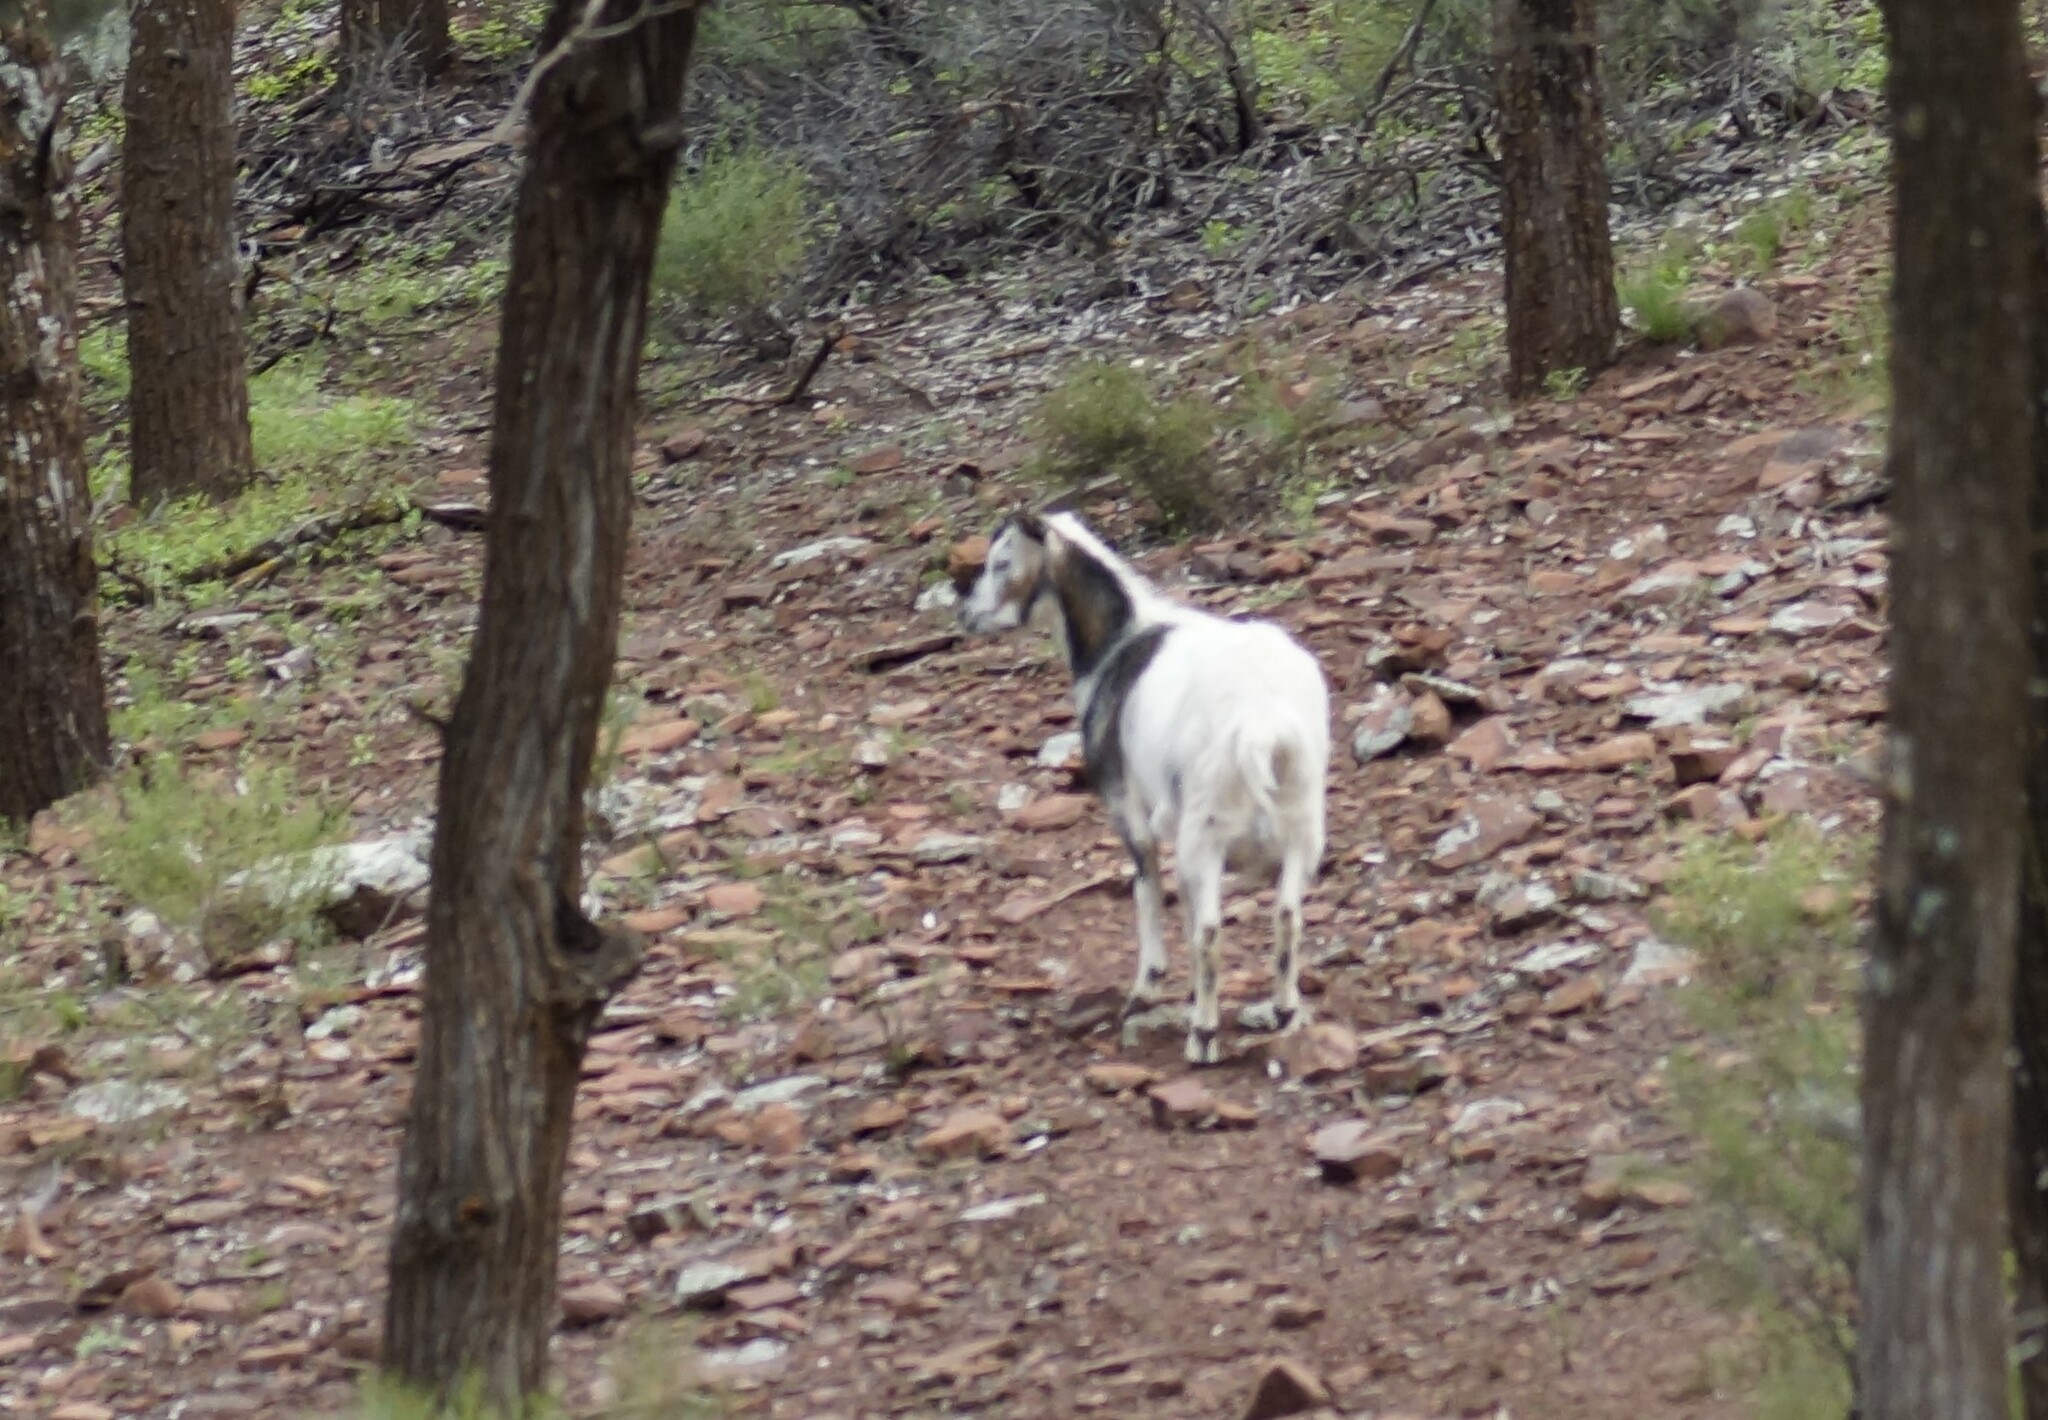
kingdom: Animalia
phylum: Chordata
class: Mammalia
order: Artiodactyla
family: Bovidae
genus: Capra
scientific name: Capra hircus
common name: Domestic goat
